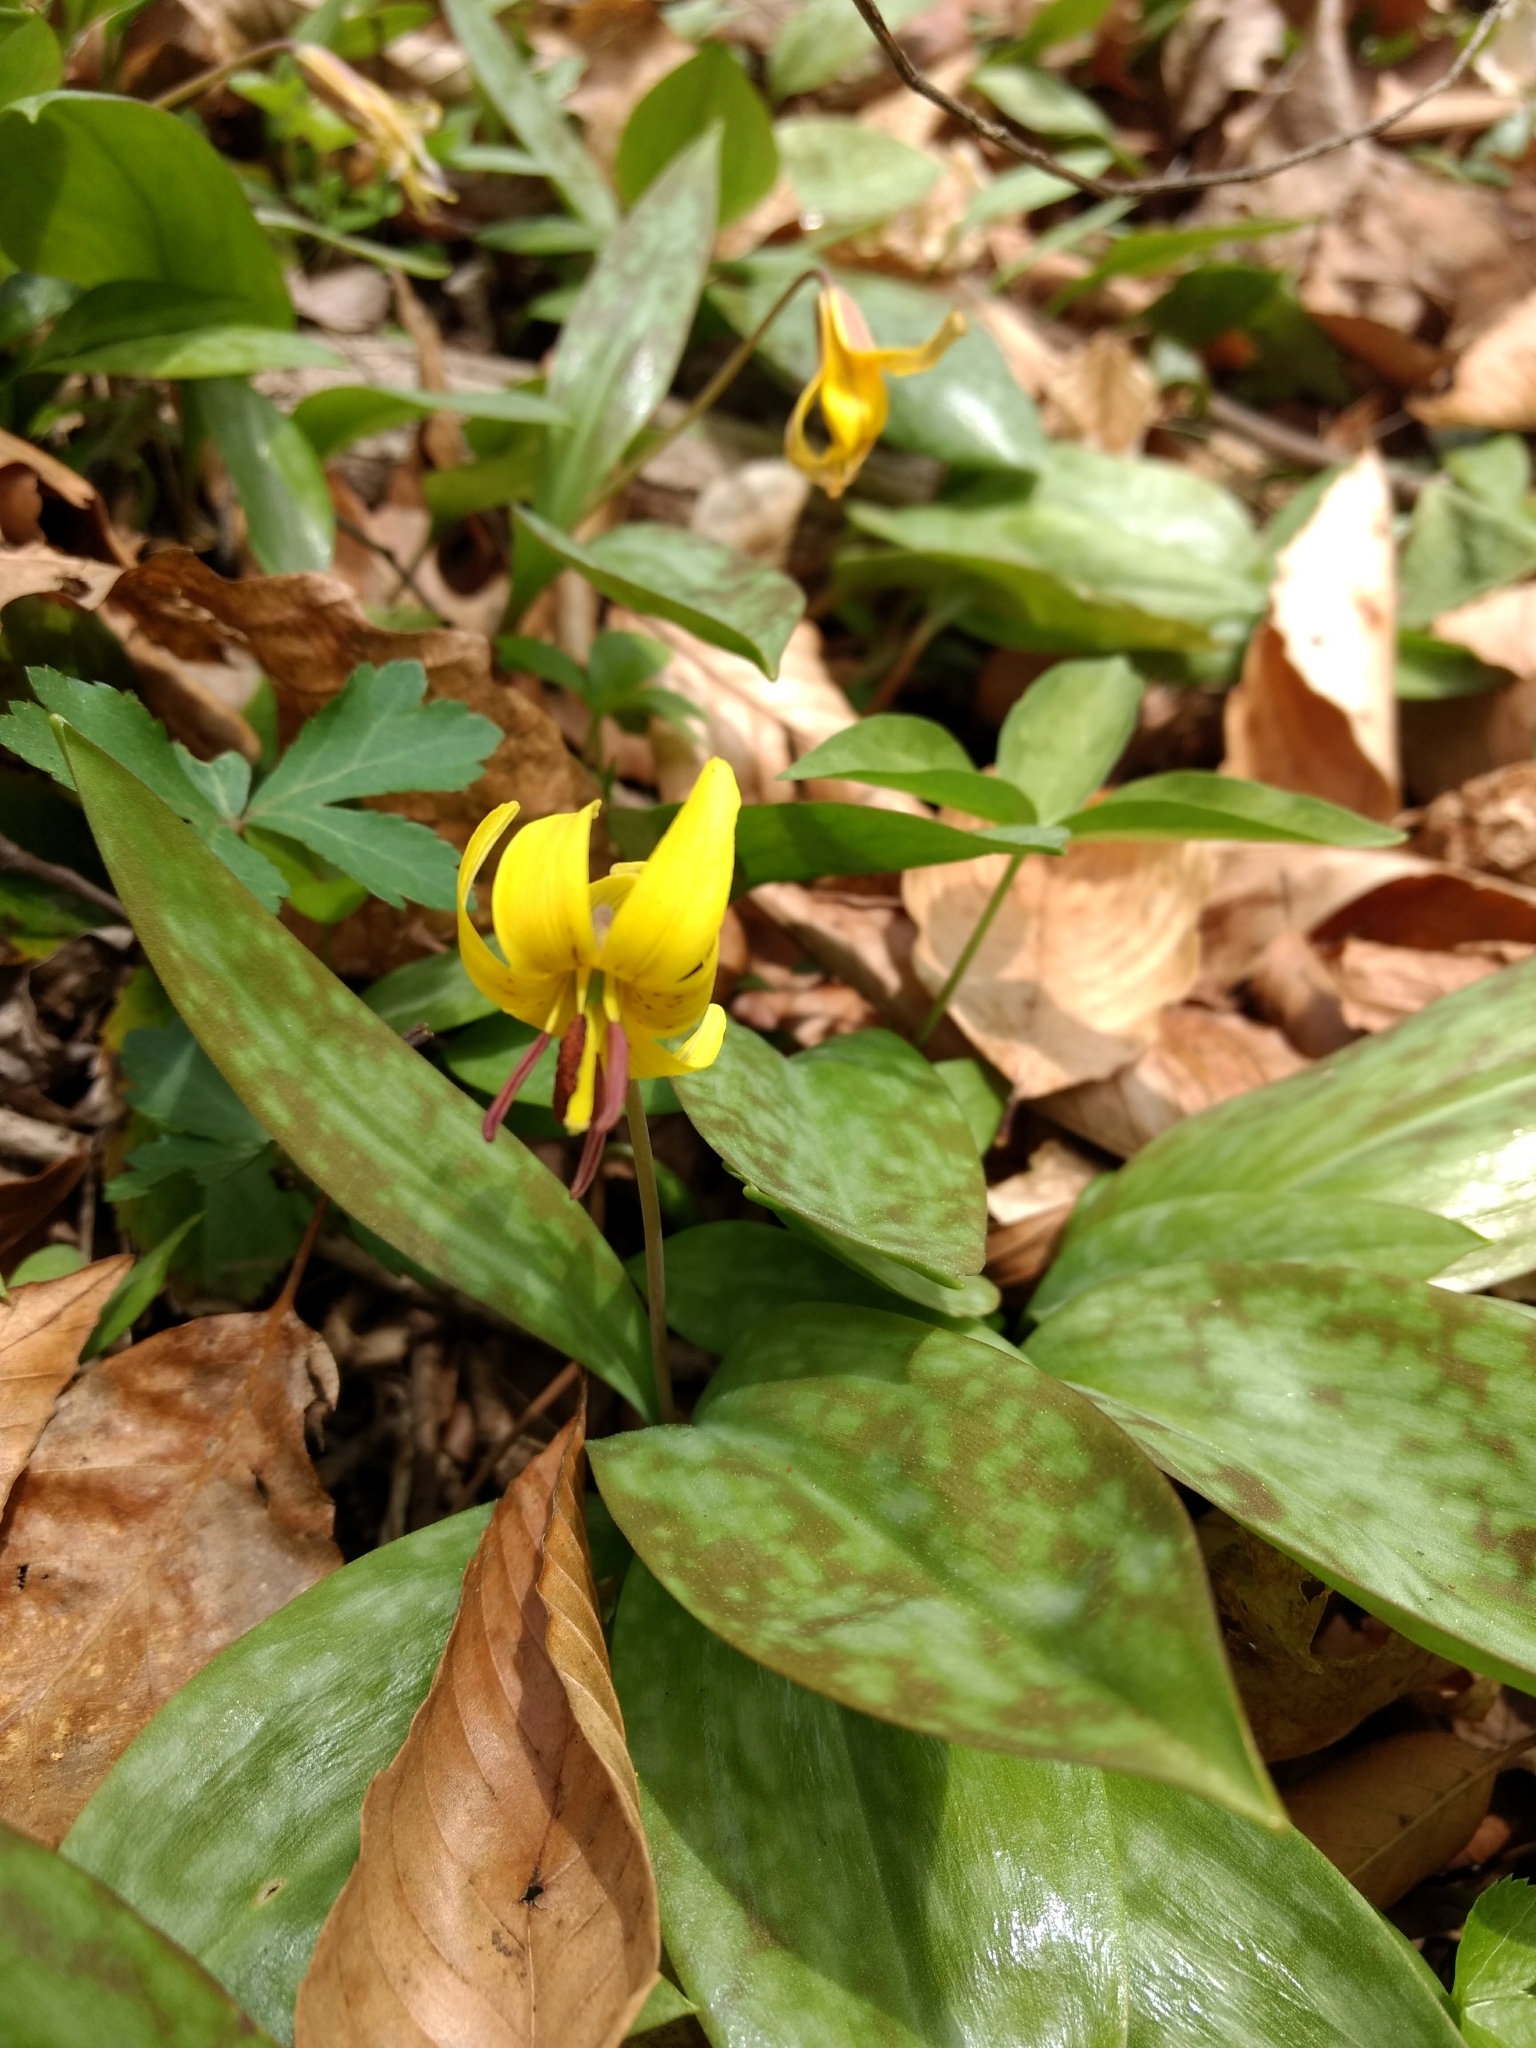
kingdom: Plantae
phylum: Tracheophyta
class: Liliopsida
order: Liliales
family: Liliaceae
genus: Erythronium
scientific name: Erythronium americanum
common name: Yellow adder's-tongue
